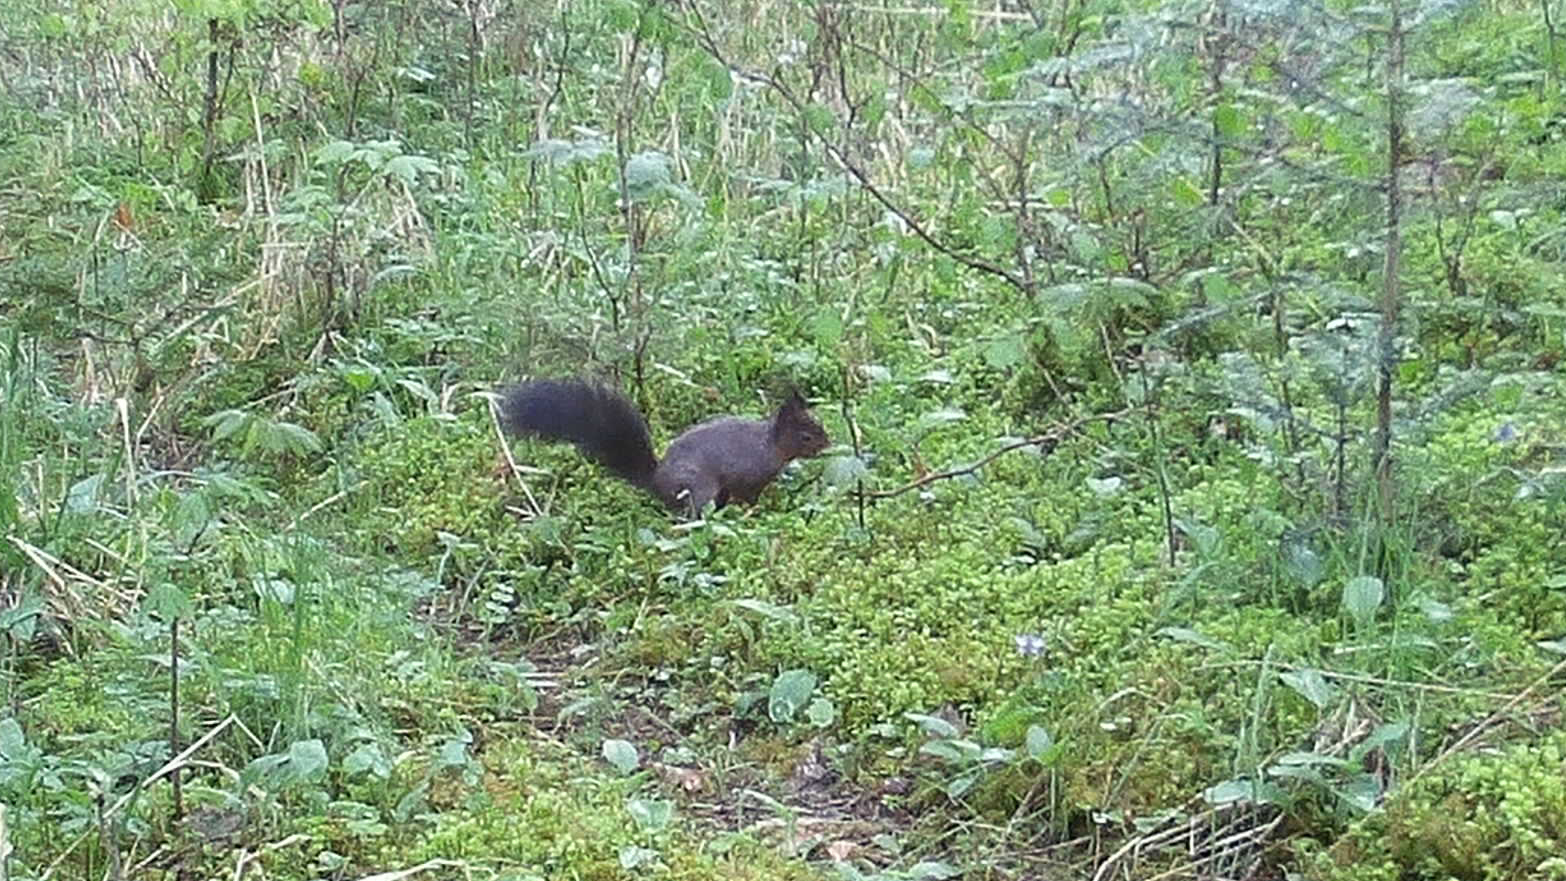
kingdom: Animalia
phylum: Chordata
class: Mammalia
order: Rodentia
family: Sciuridae
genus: Sciurus
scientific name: Sciurus vulgaris
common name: Eurasian red squirrel
